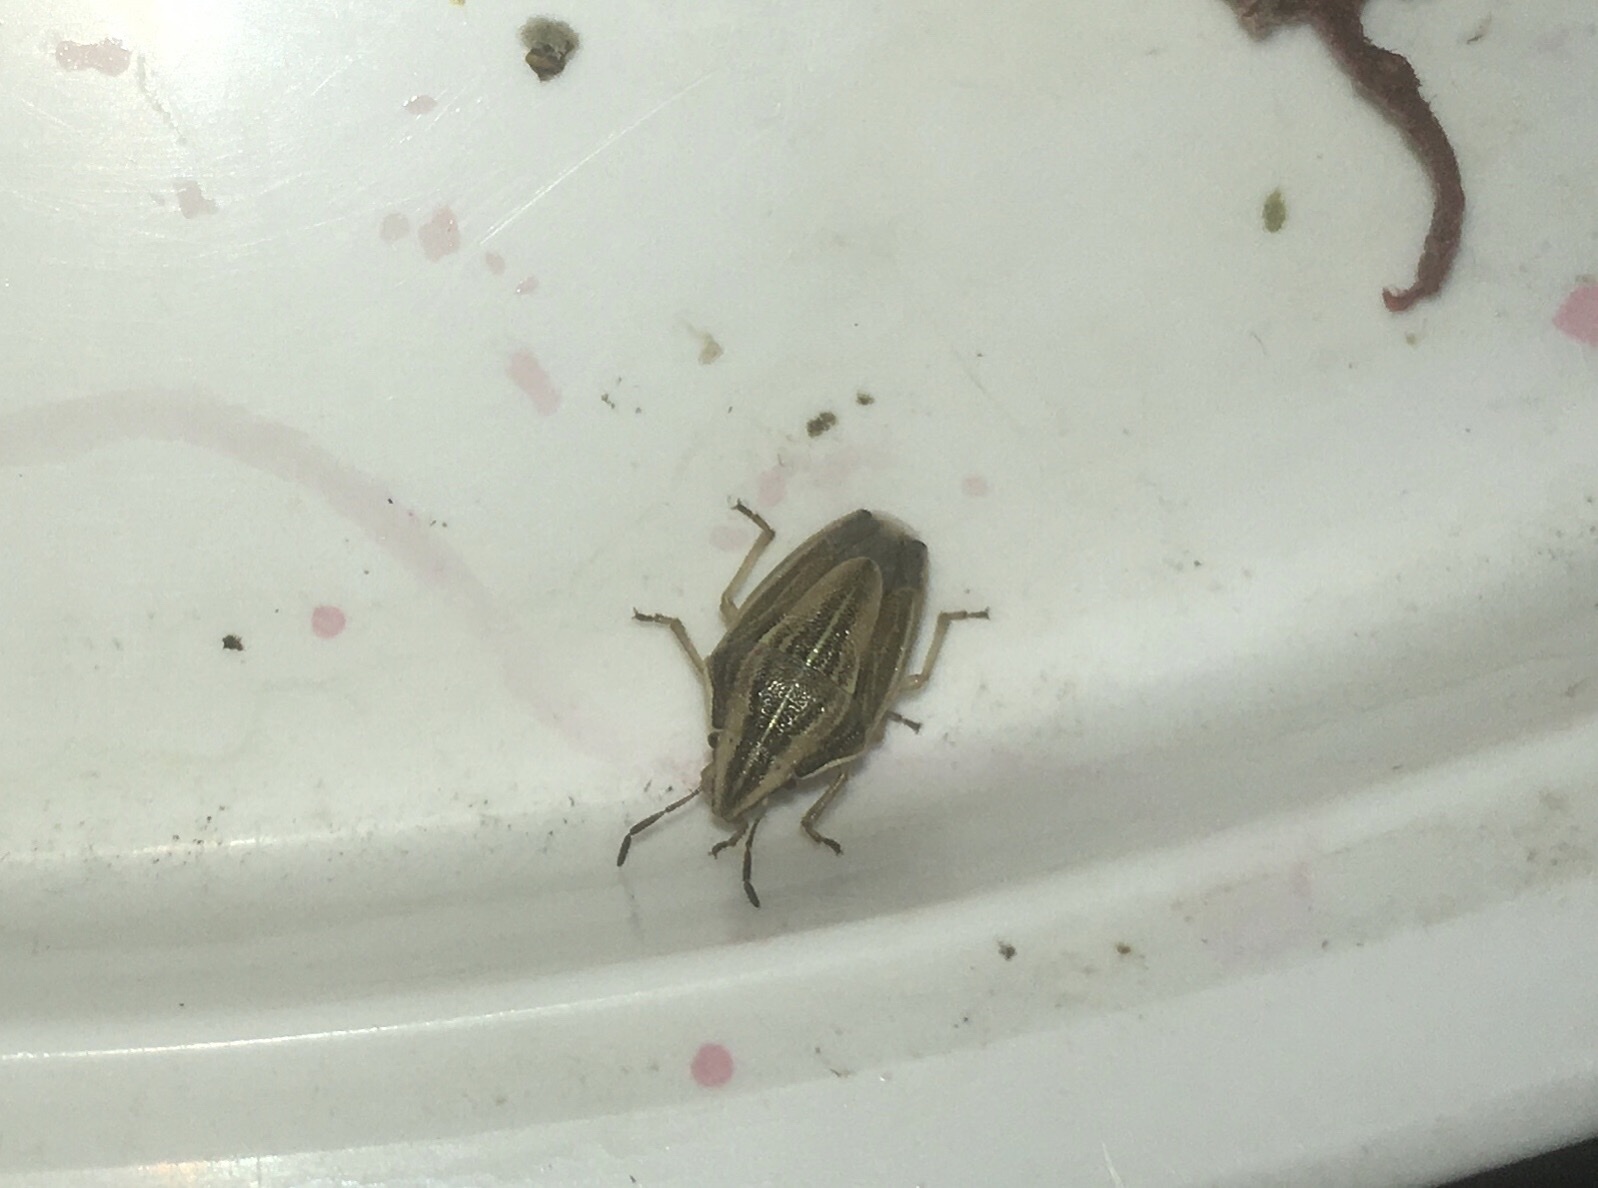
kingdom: Animalia
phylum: Arthropoda
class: Insecta
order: Hemiptera
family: Pentatomidae
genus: Aelia
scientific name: Aelia acuminata
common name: Bishop's mitre
